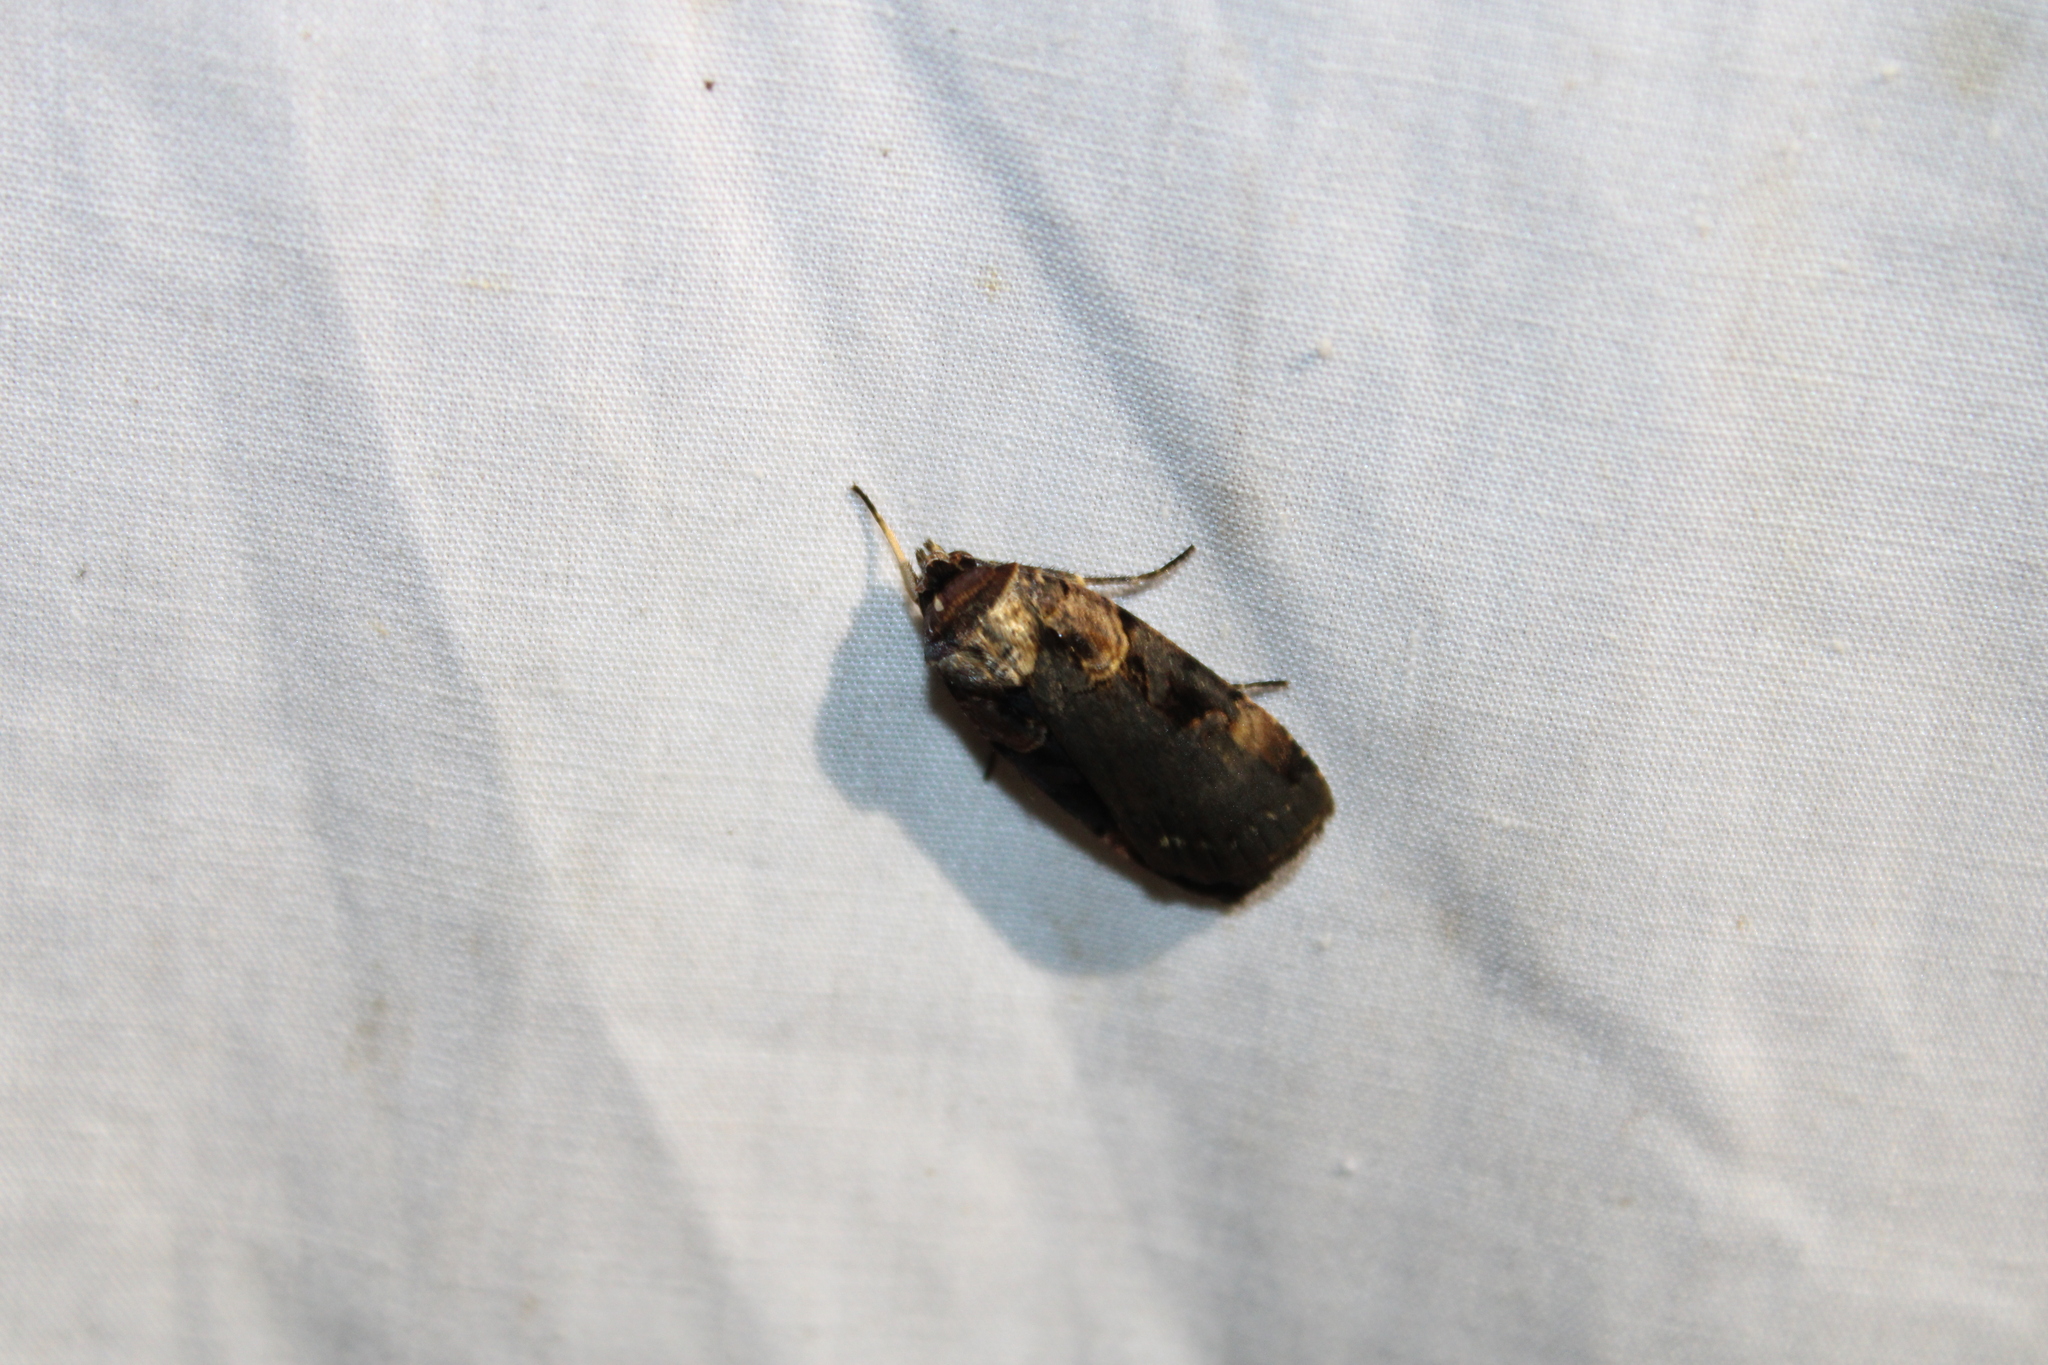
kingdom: Animalia
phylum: Arthropoda
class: Insecta
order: Lepidoptera
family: Noctuidae
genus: Pseudohermonassa
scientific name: Pseudohermonassa bicarnea
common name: Pink spotted dart
